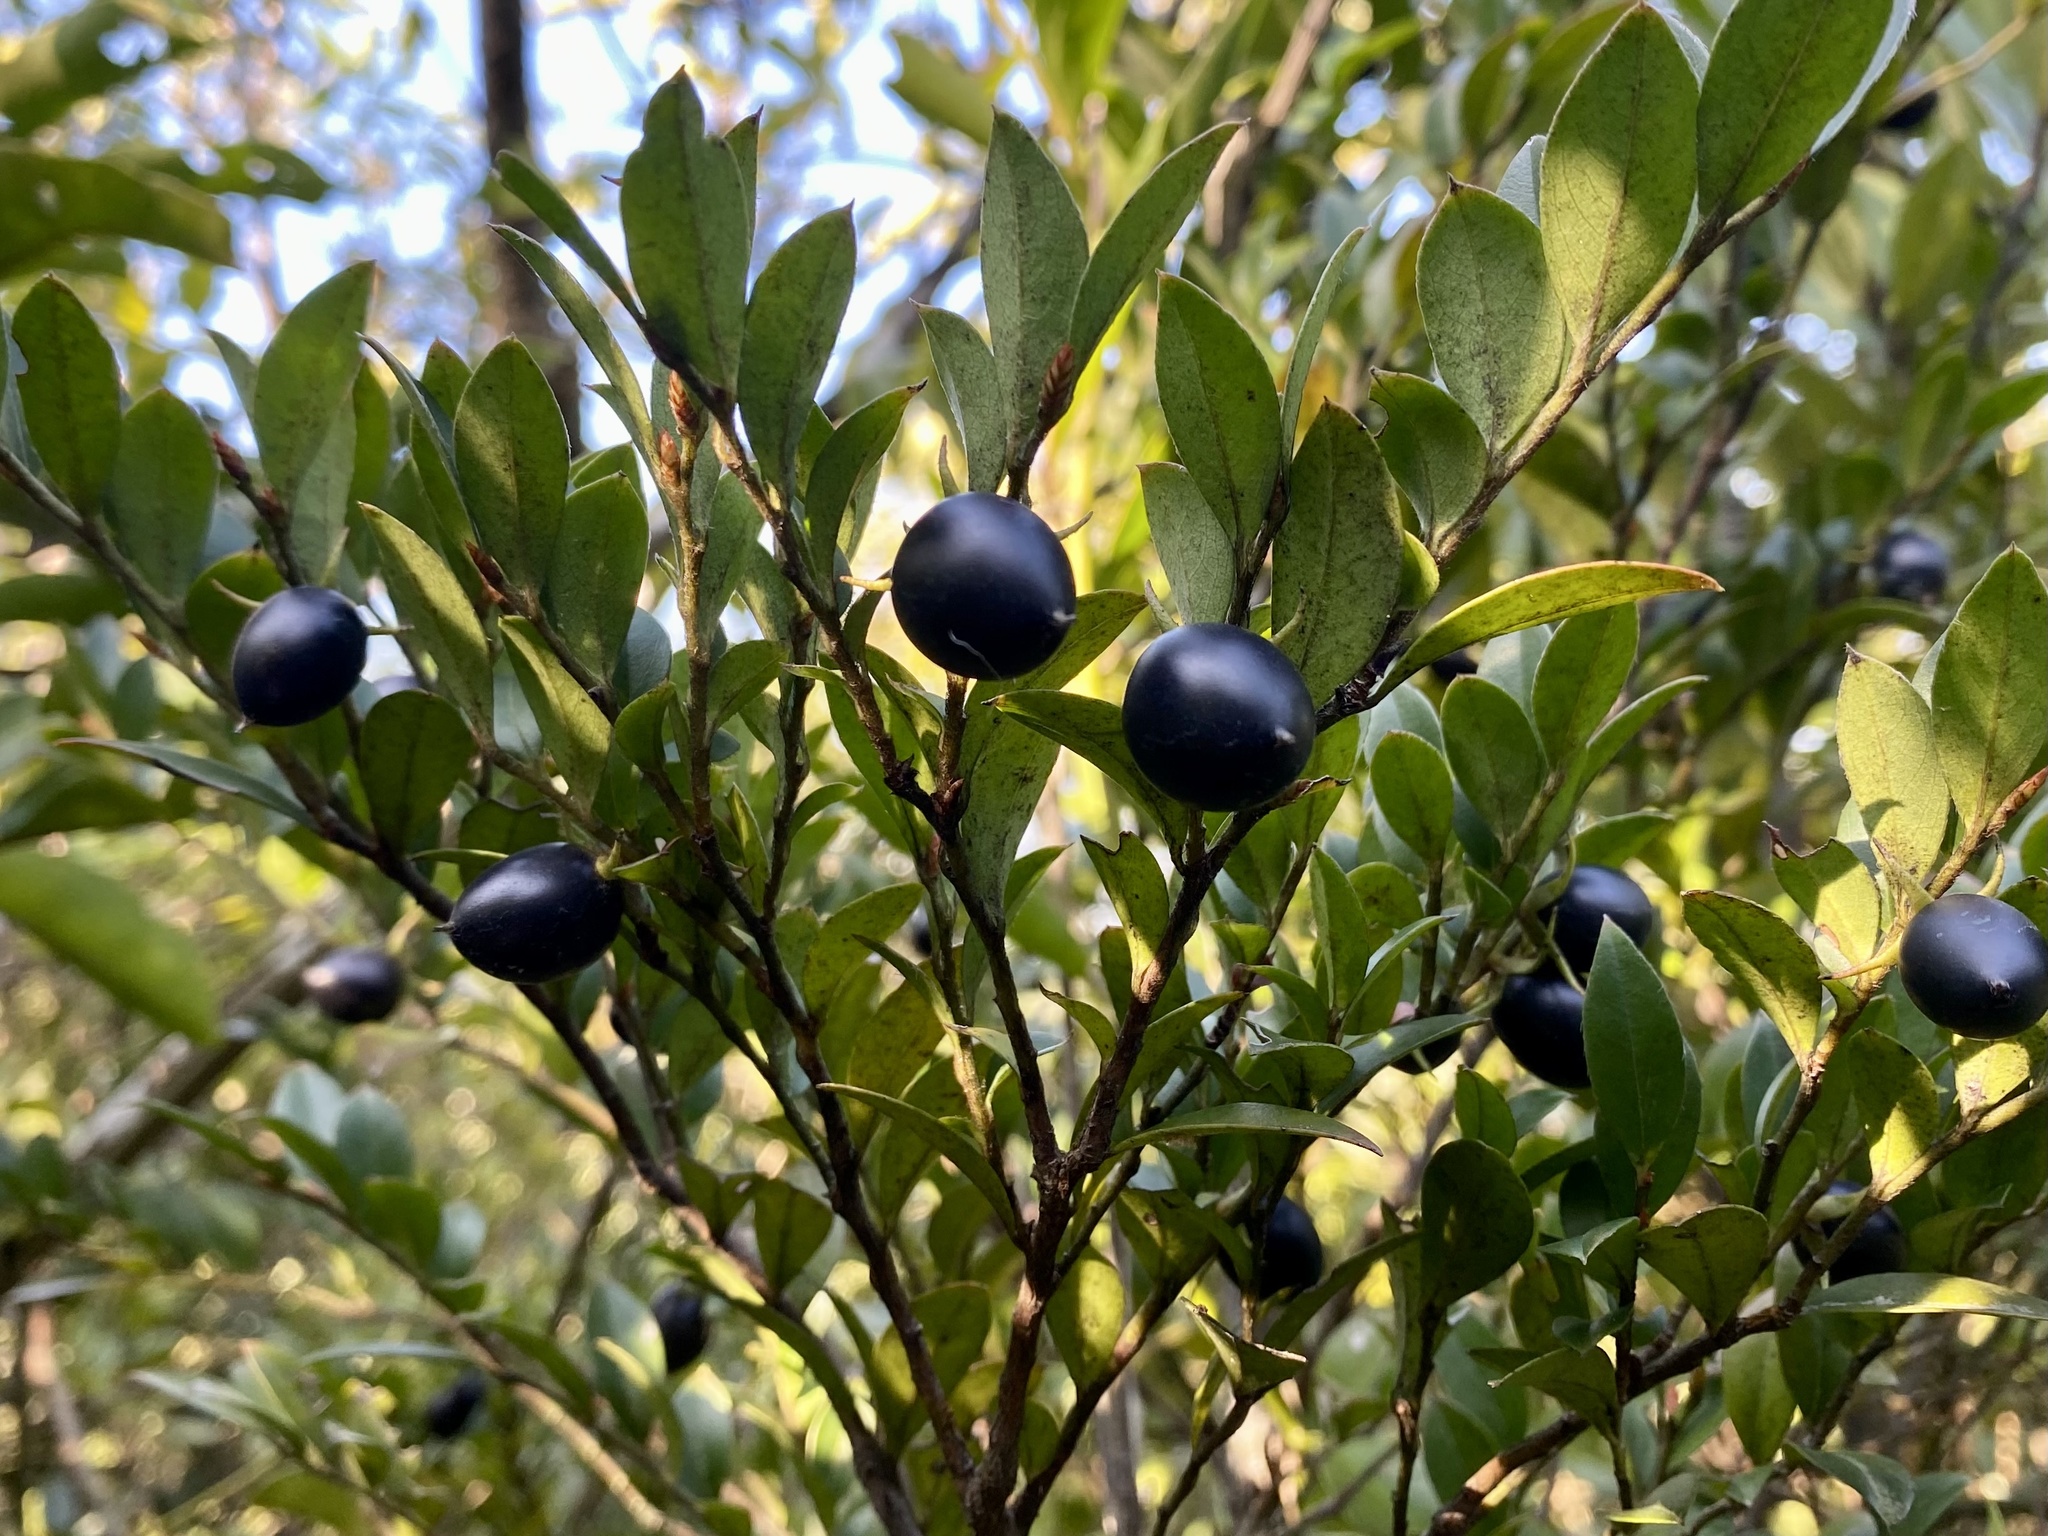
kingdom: Plantae
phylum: Tracheophyta
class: Magnoliopsida
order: Ericales
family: Ebenaceae
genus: Diospyros
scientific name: Diospyros vaccinioides
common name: Small persimmon
